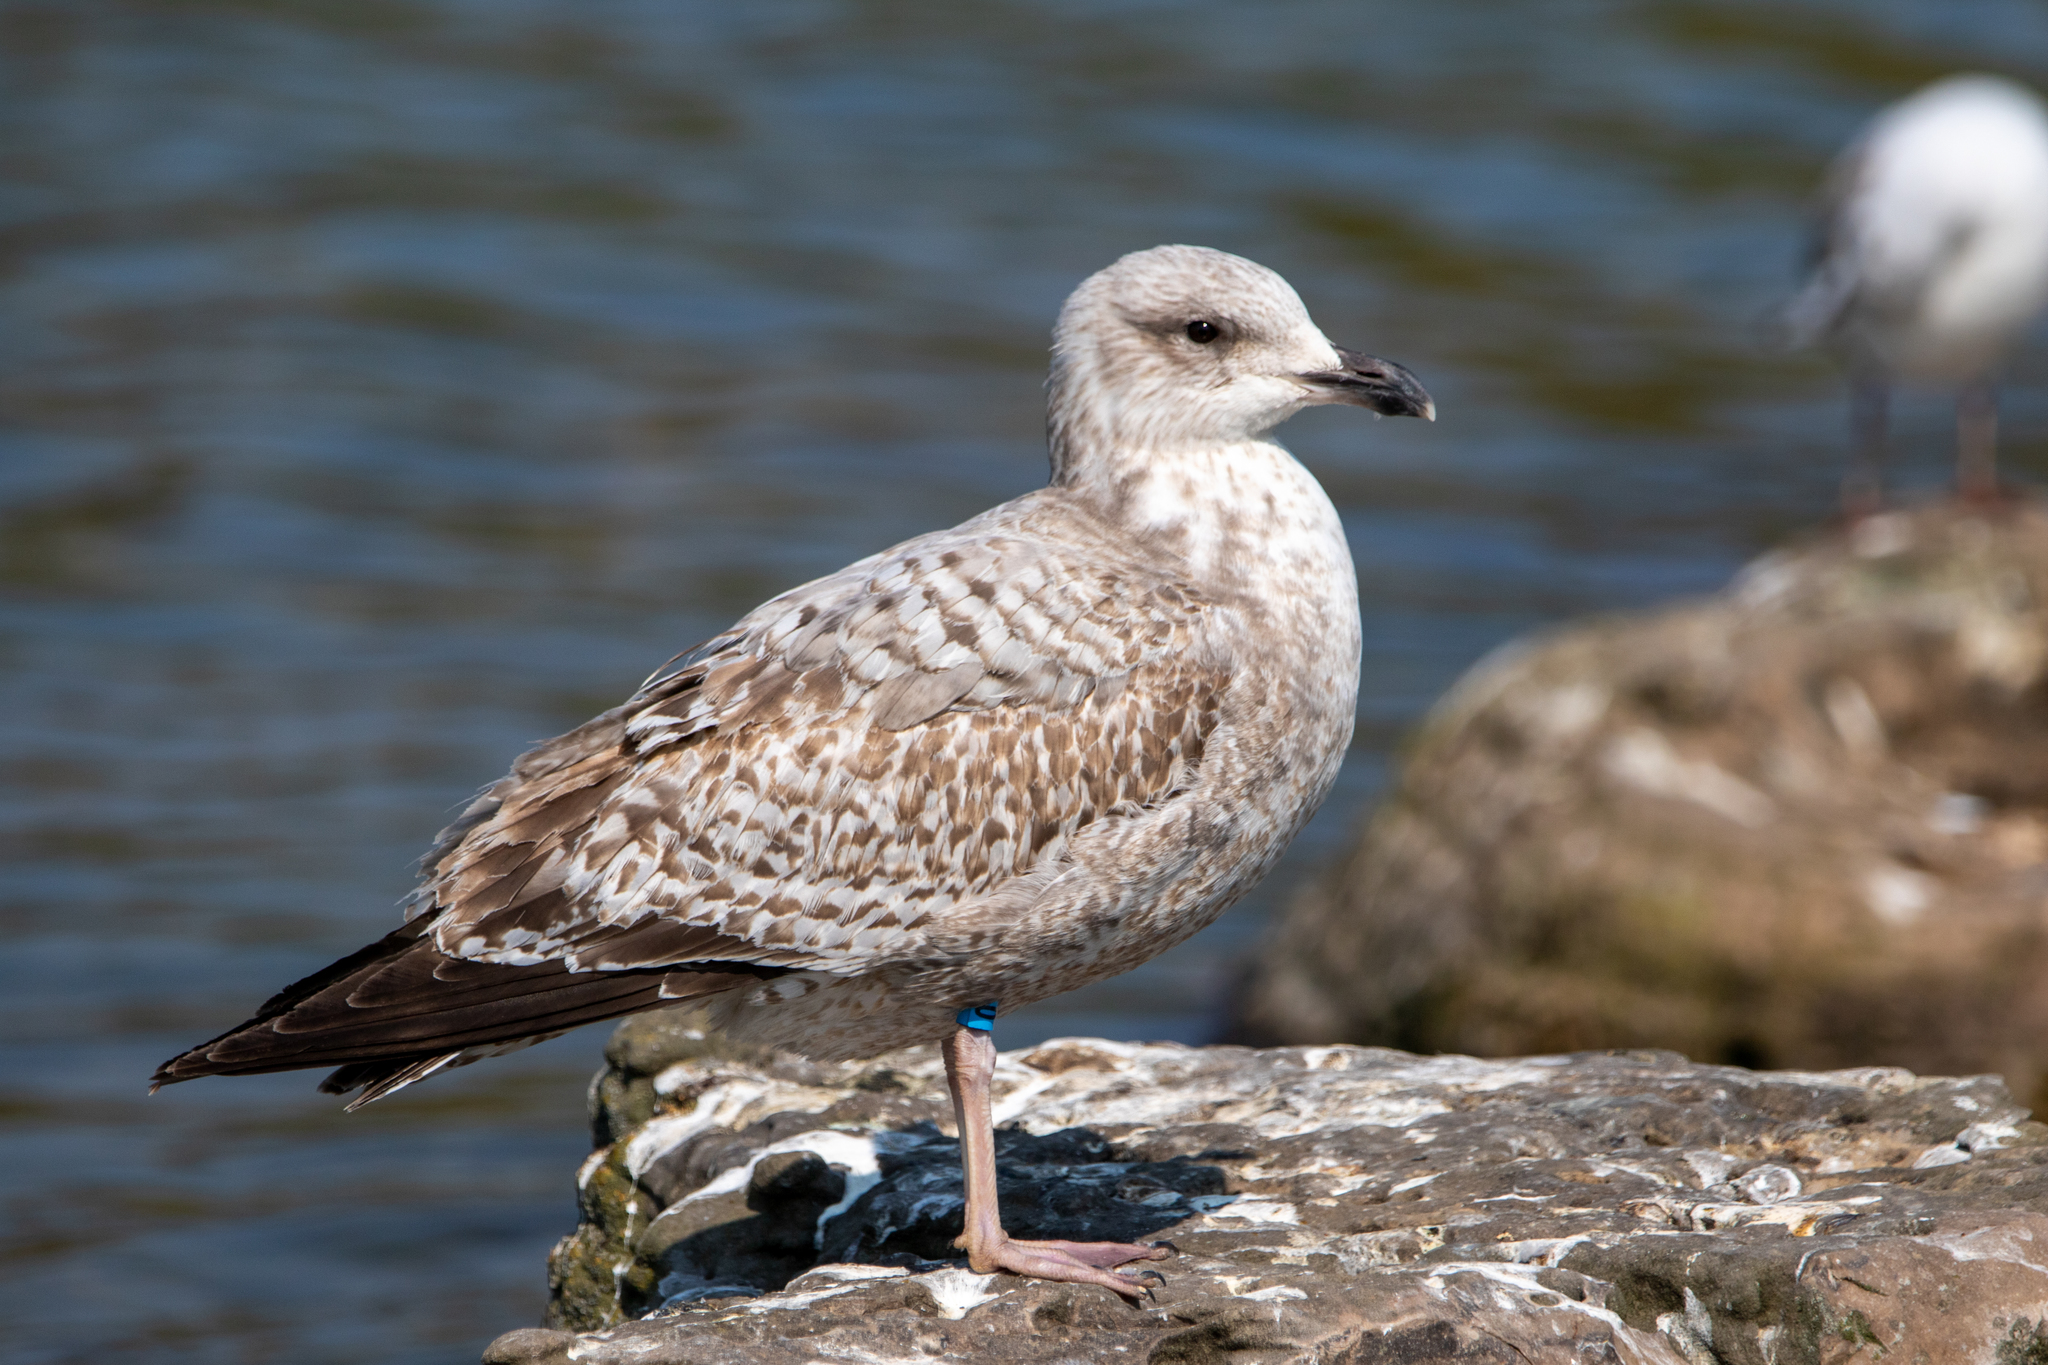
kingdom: Animalia
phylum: Chordata
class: Aves
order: Charadriiformes
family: Laridae
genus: Larus
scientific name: Larus argentatus
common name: Herring gull
